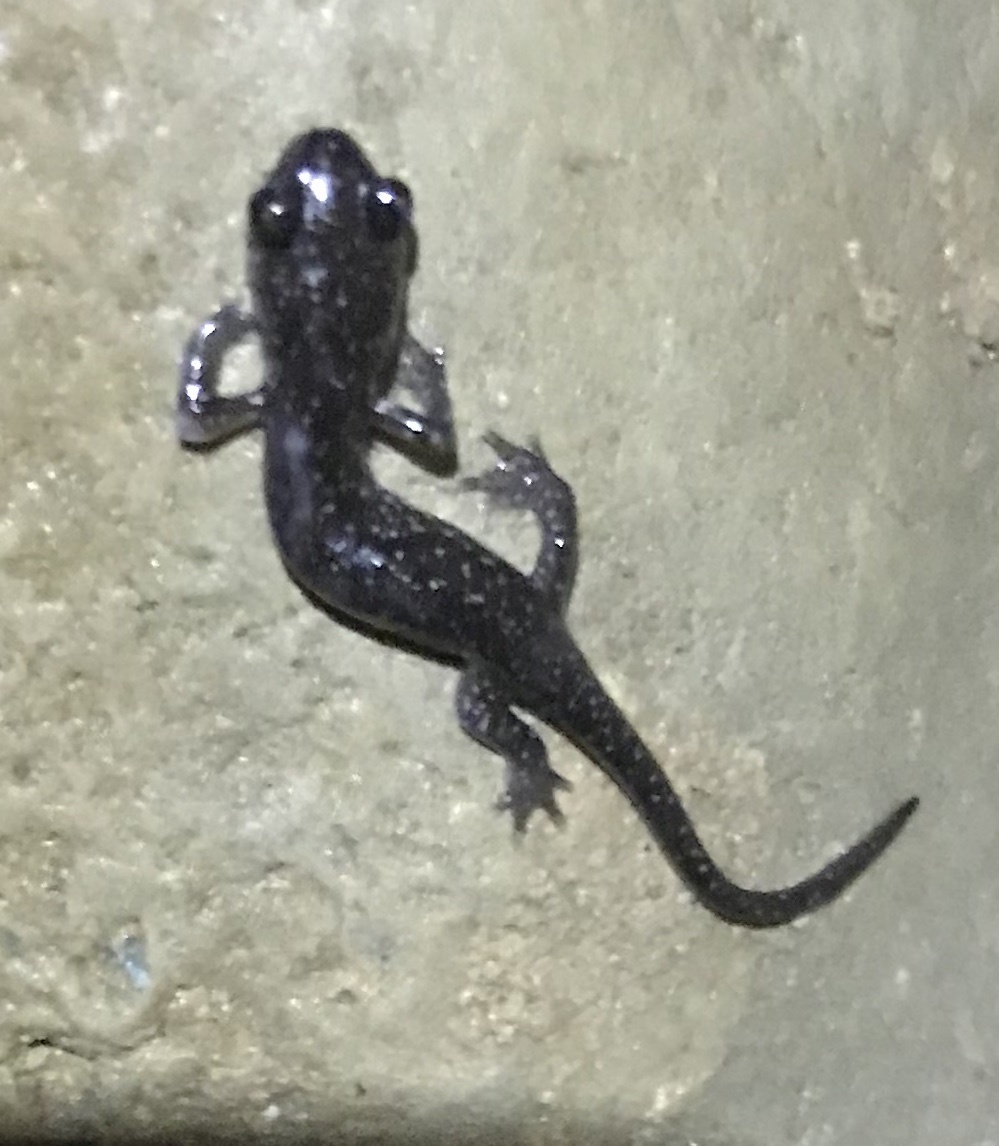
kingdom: Animalia
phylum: Chordata
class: Amphibia
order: Caudata
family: Plethodontidae
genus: Plethodon
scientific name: Plethodon glutinosus
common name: Northern slimy salamander
